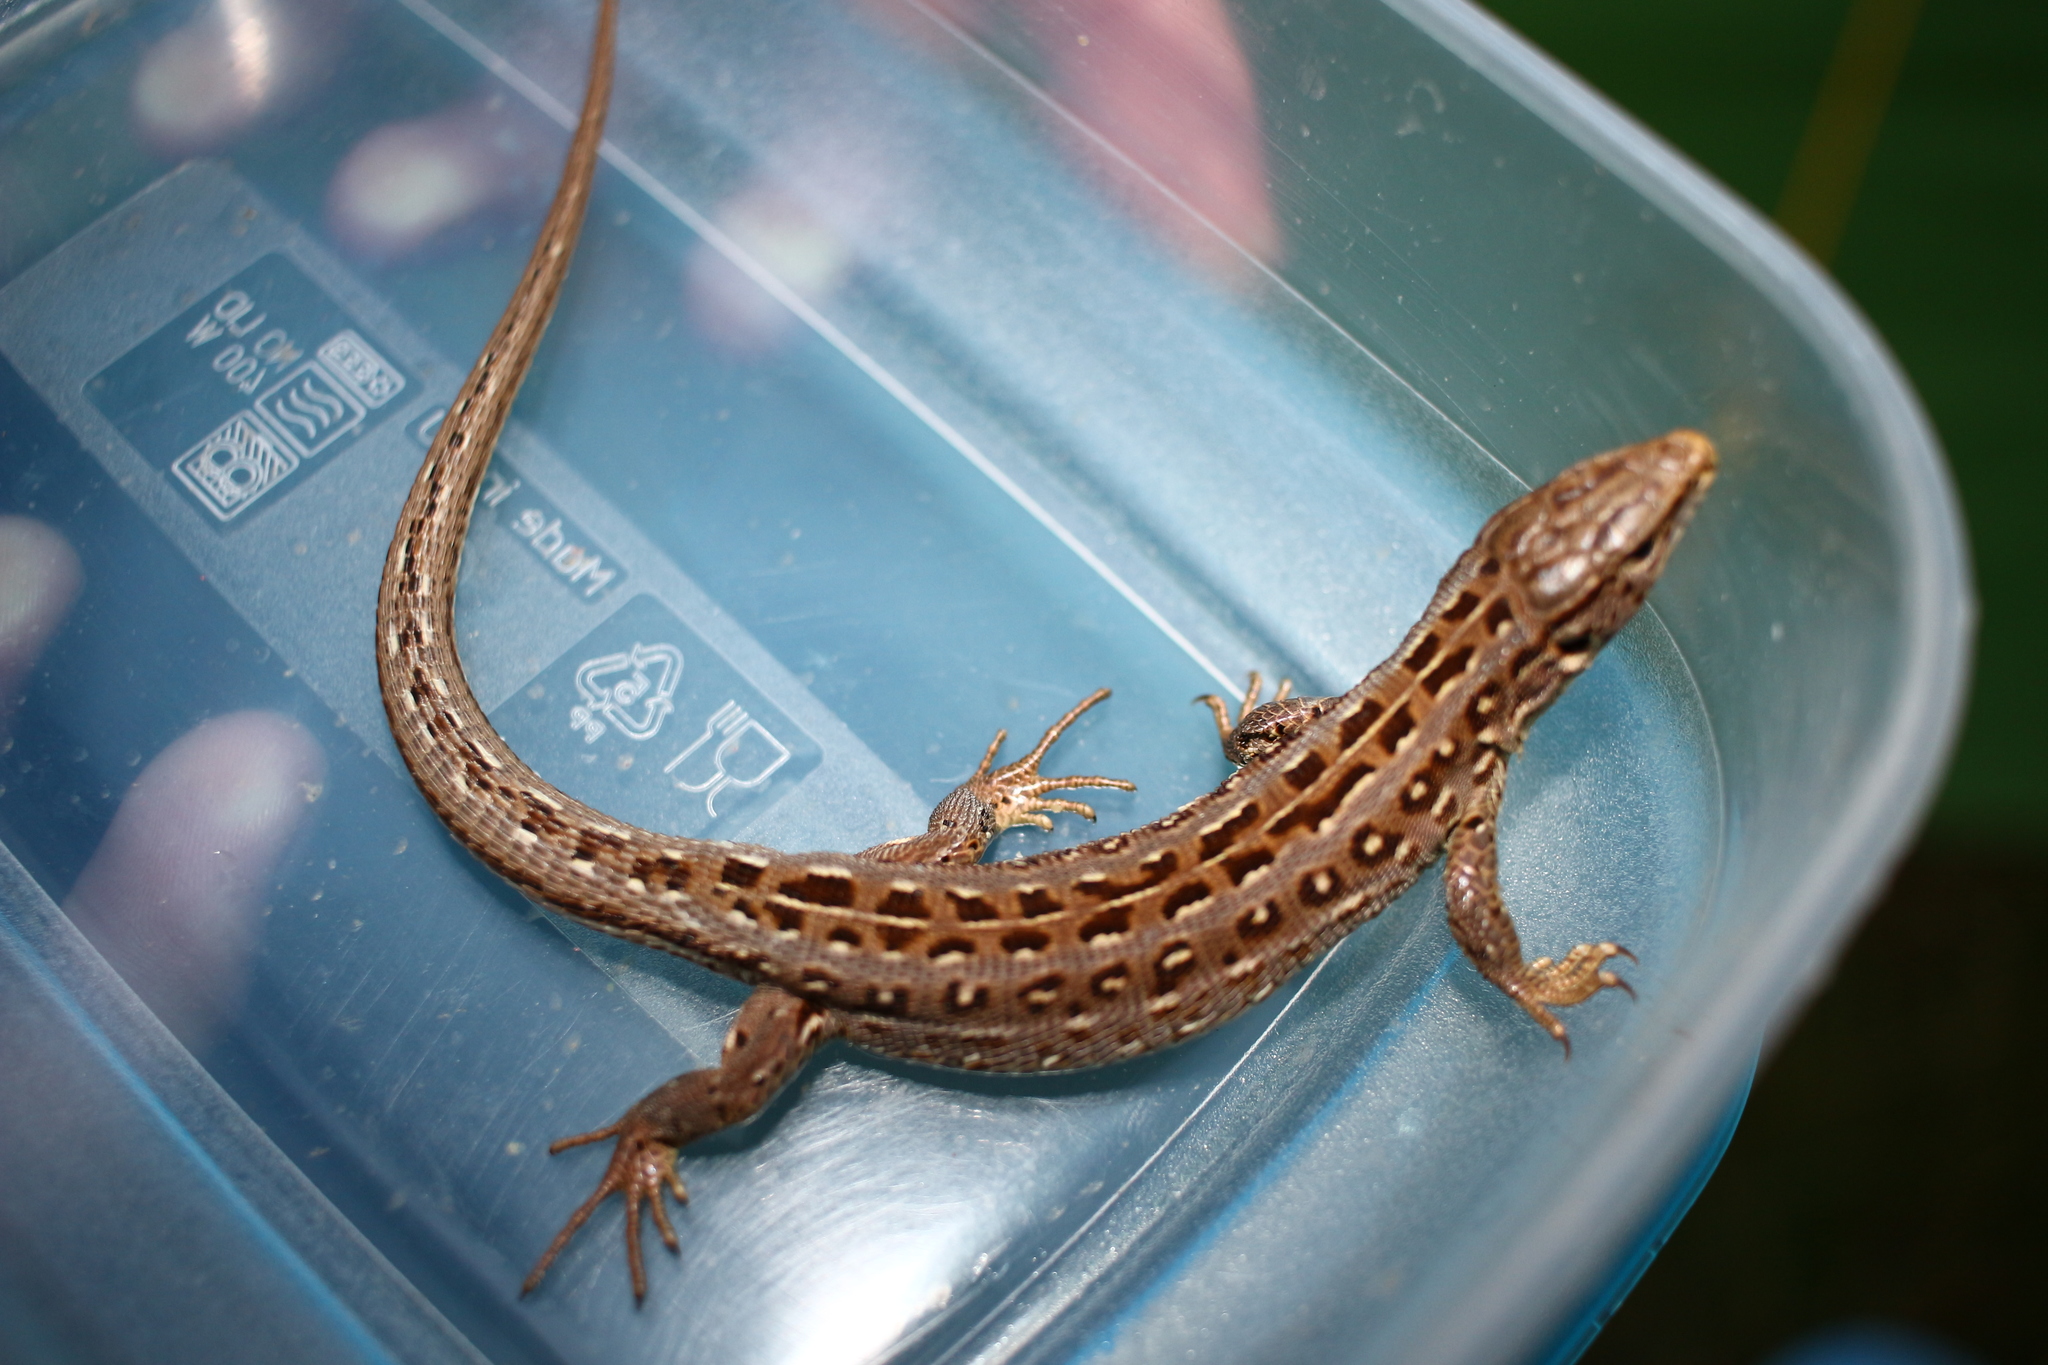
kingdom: Animalia
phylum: Chordata
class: Squamata
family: Lacertidae
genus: Lacerta
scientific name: Lacerta agilis
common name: Sand lizard
